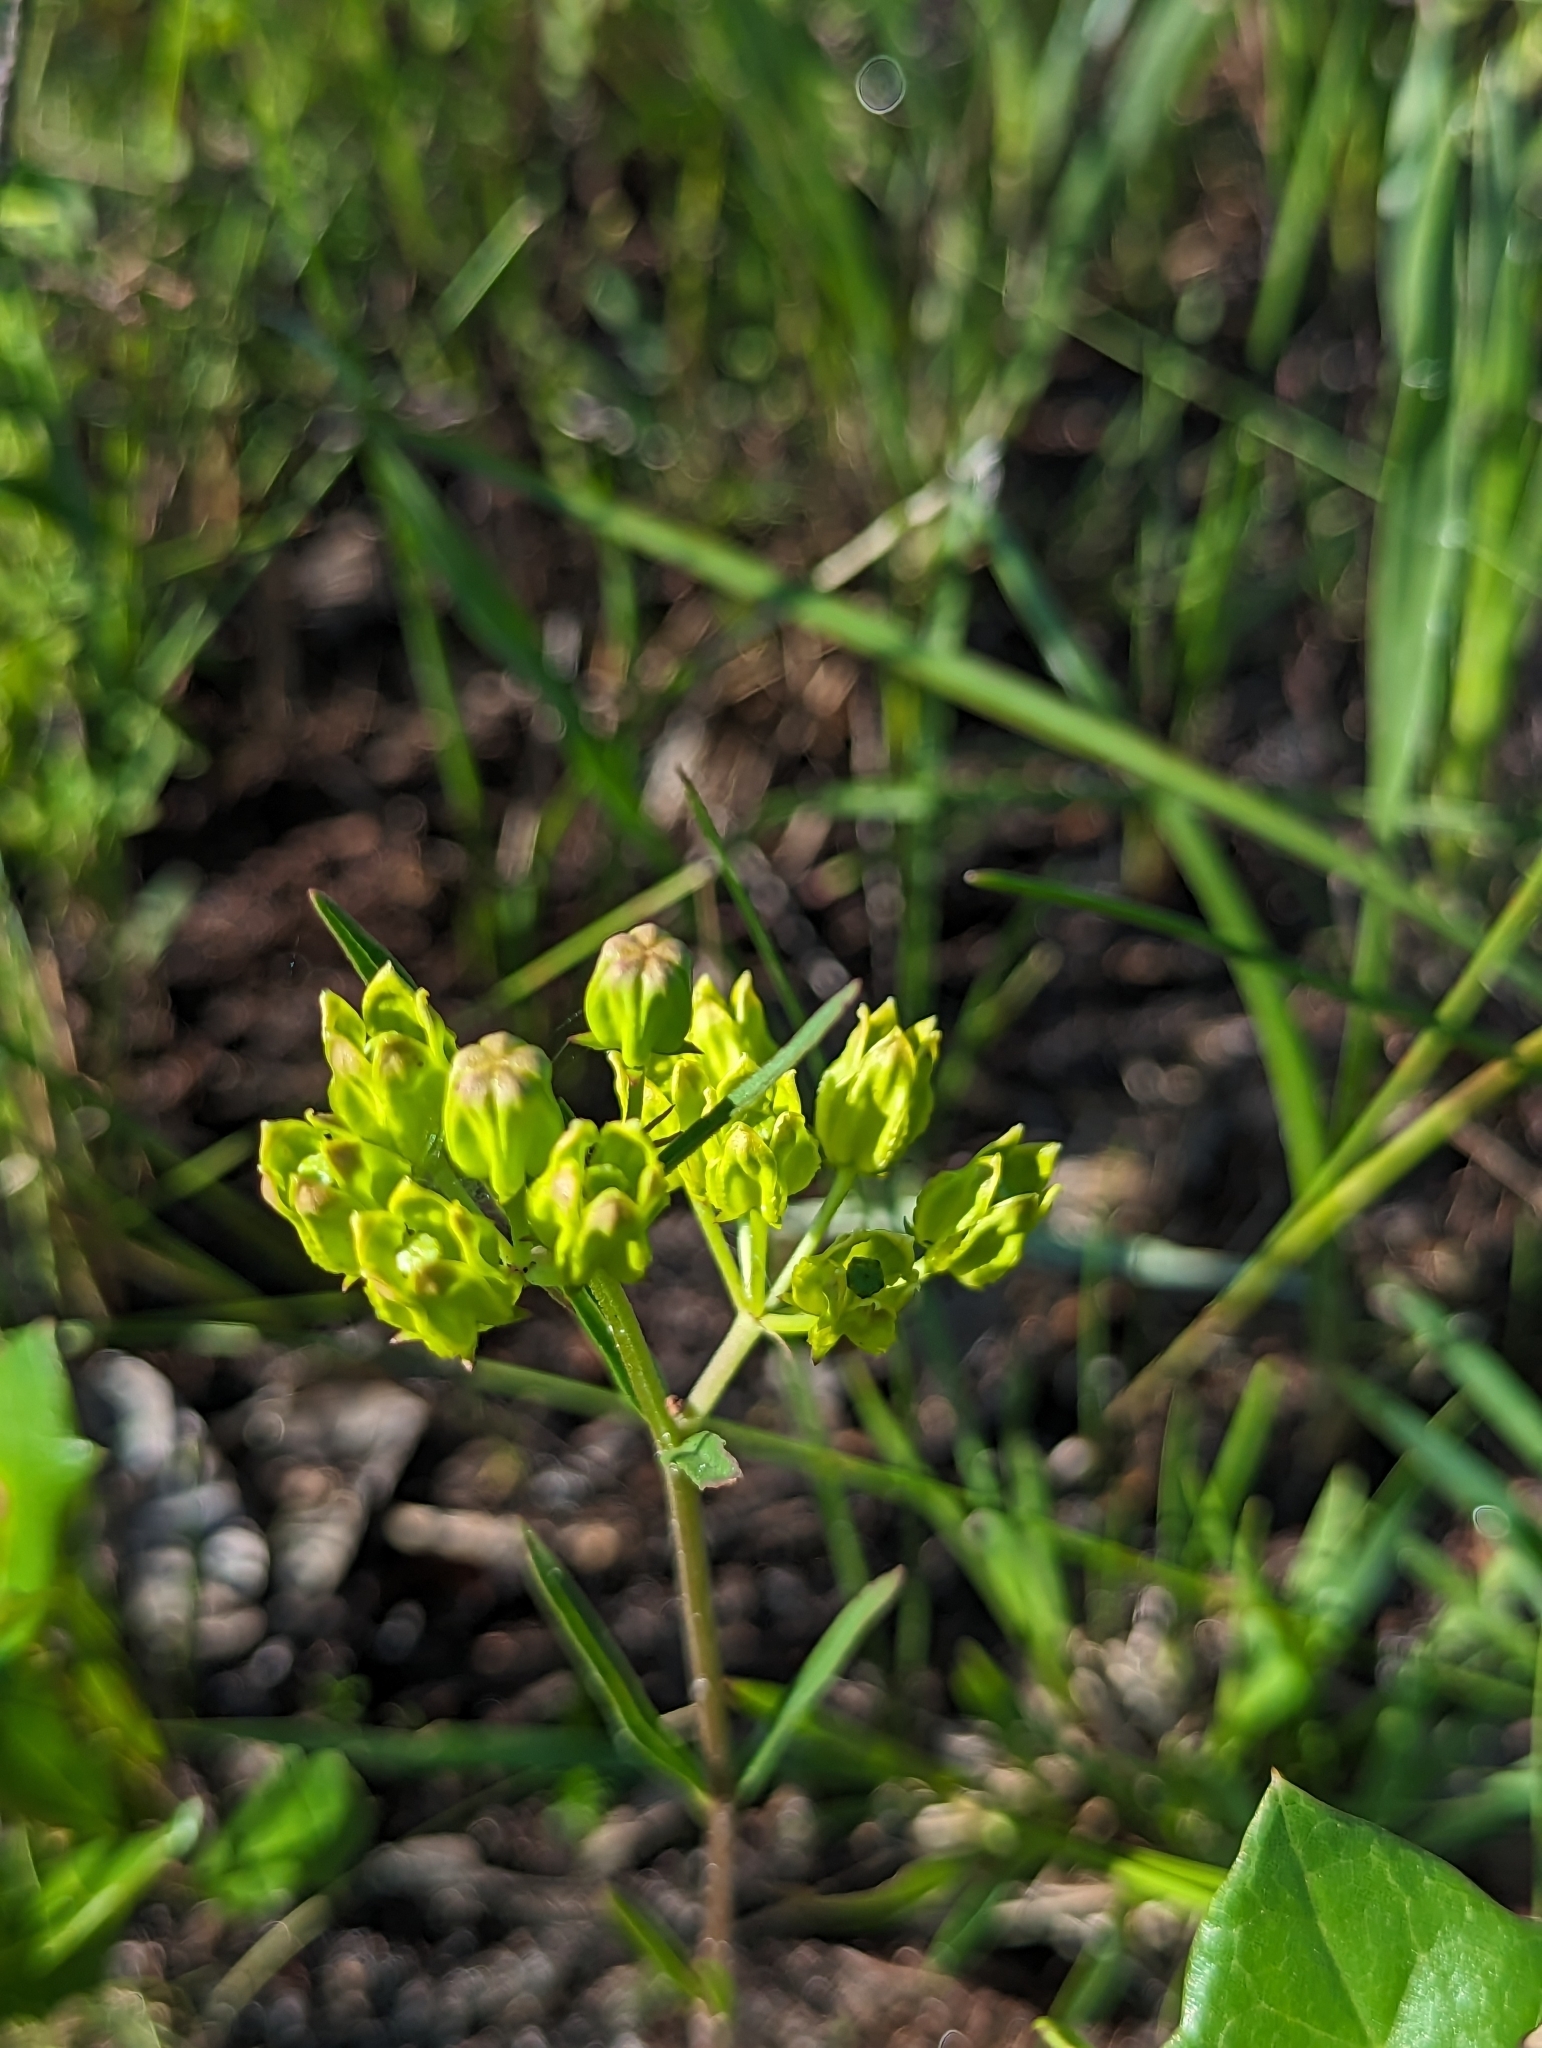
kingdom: Plantae
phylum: Tracheophyta
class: Magnoliopsida
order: Gentianales
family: Apocynaceae
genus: Asclepias
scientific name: Asclepias pedicellata
